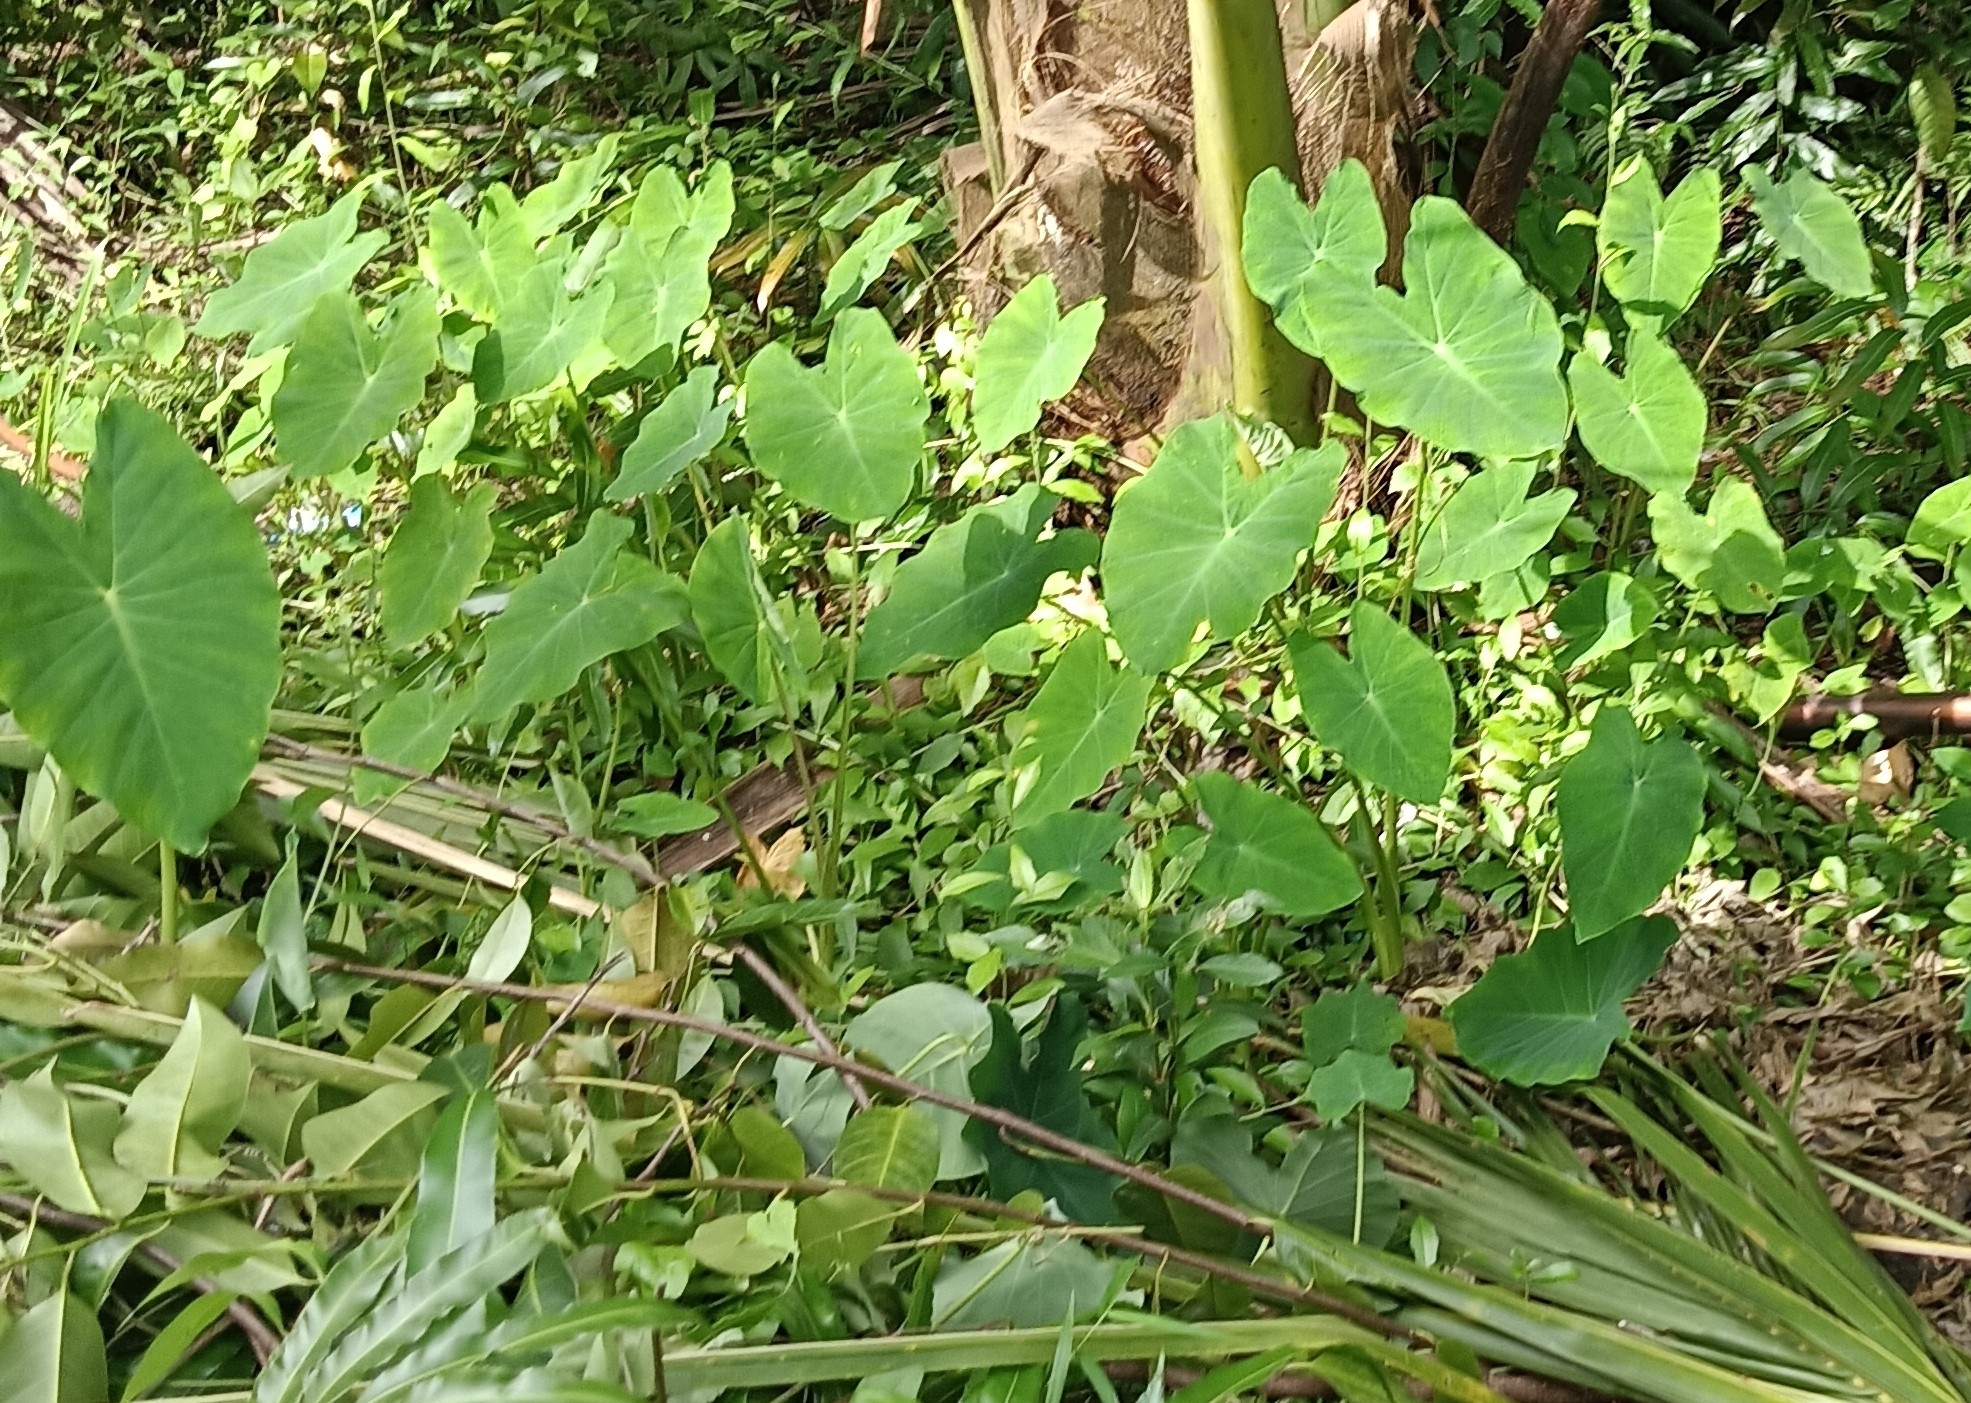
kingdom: Plantae
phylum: Tracheophyta
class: Liliopsida
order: Alismatales
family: Araceae
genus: Colocasia
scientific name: Colocasia esculenta
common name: Taro
